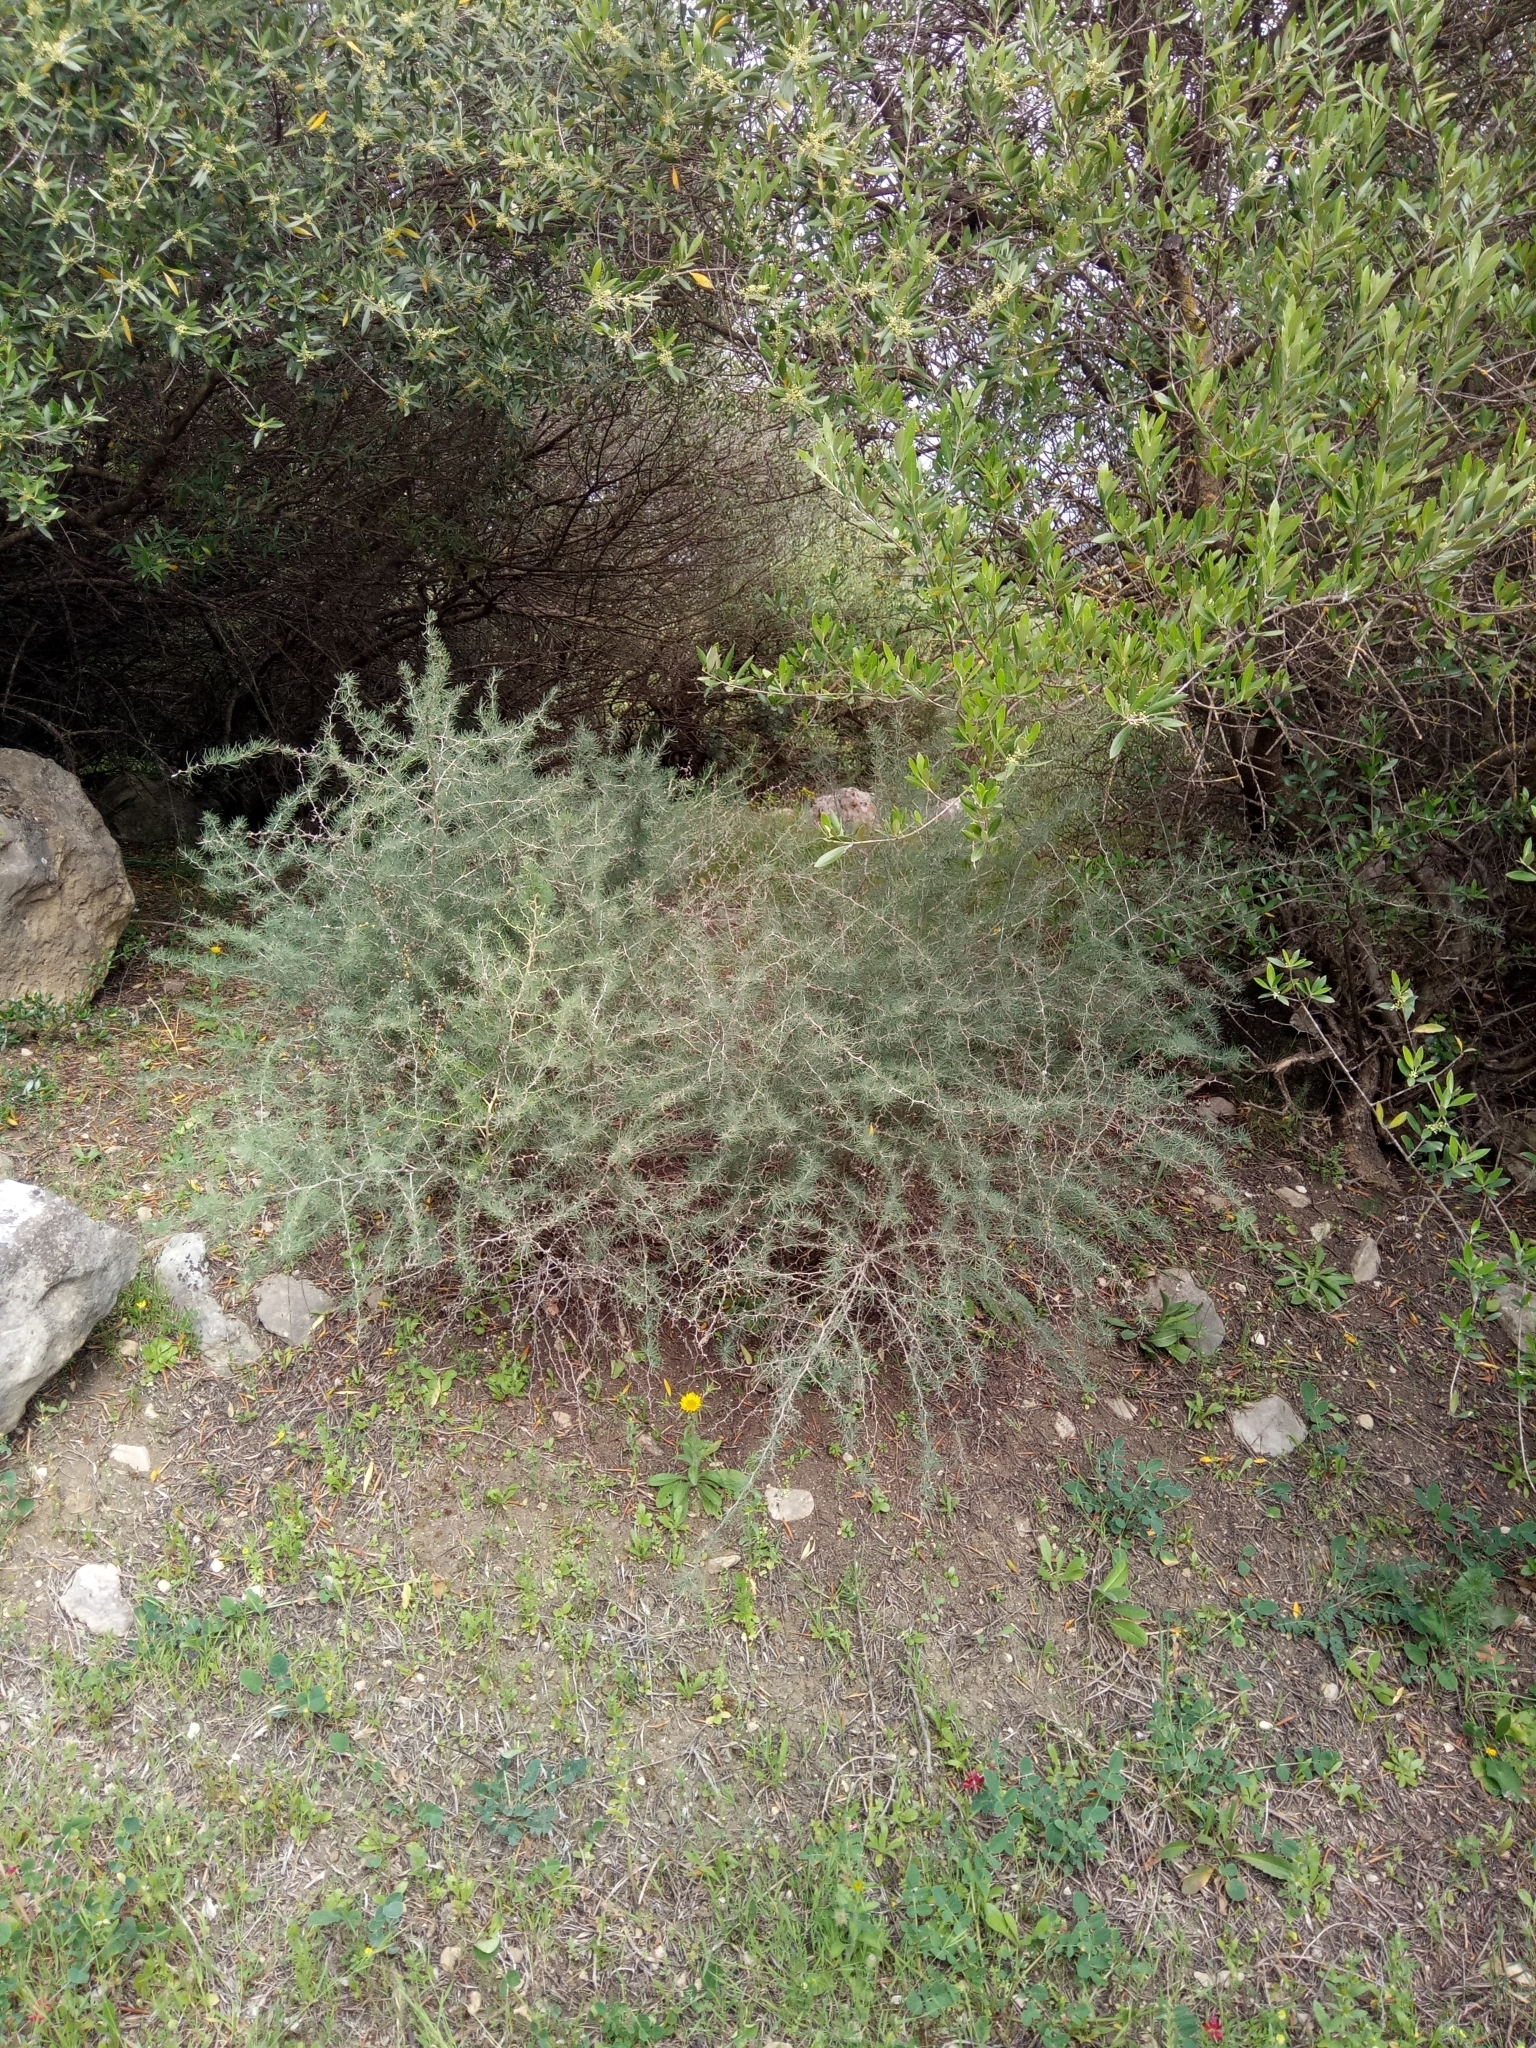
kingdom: Plantae
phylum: Tracheophyta
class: Liliopsida
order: Asparagales
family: Asparagaceae
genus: Asparagus
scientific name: Asparagus albus
